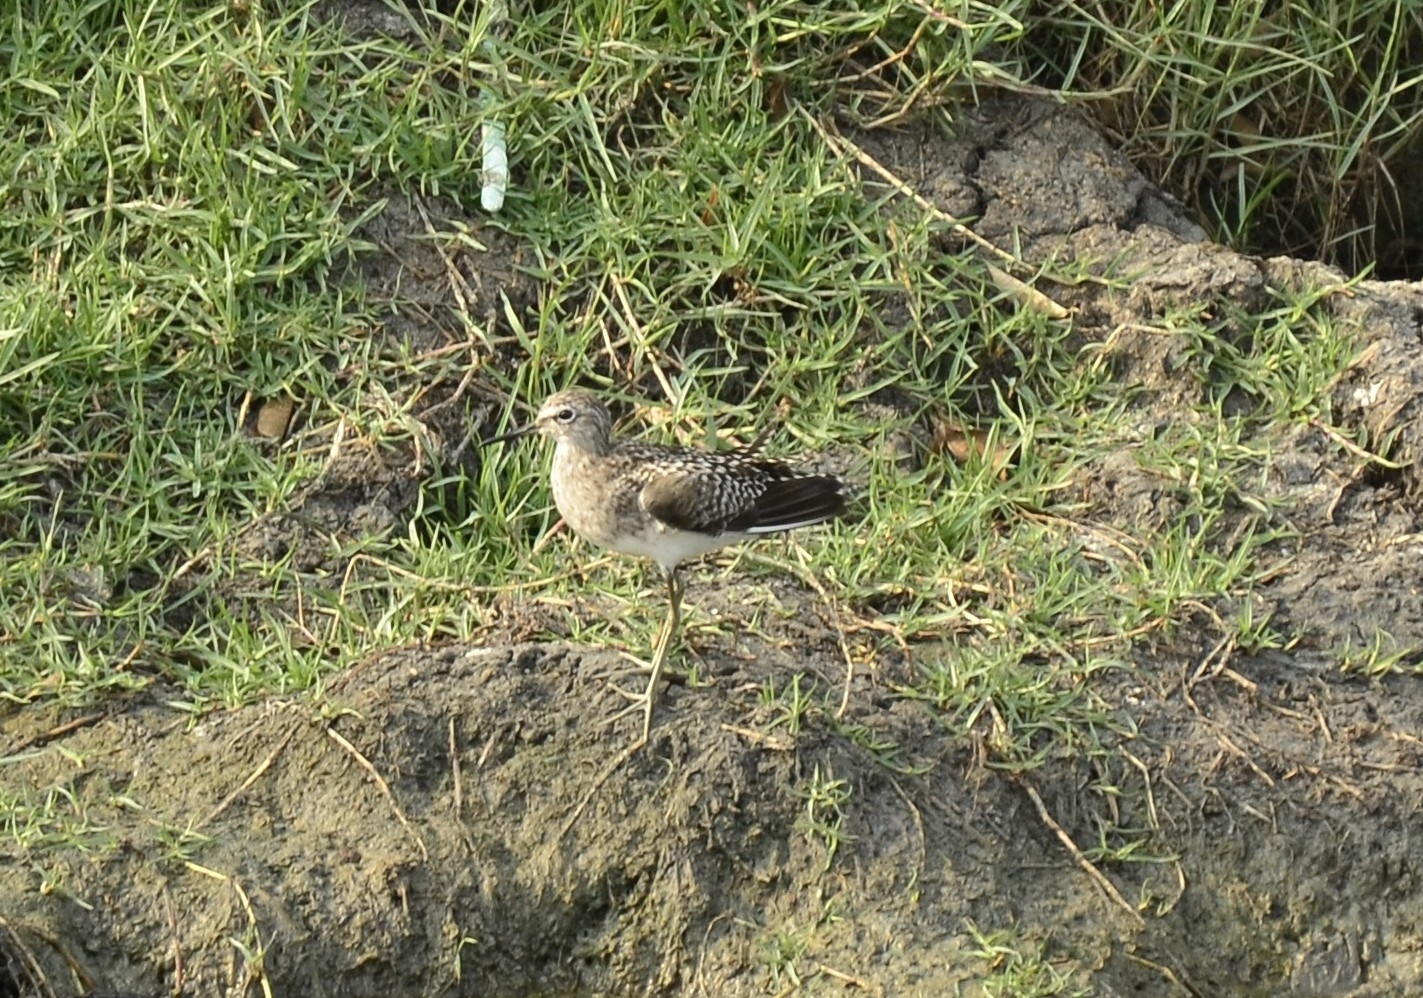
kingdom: Animalia
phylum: Chordata
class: Aves
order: Charadriiformes
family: Scolopacidae
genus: Tringa
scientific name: Tringa glareola
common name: Wood sandpiper
